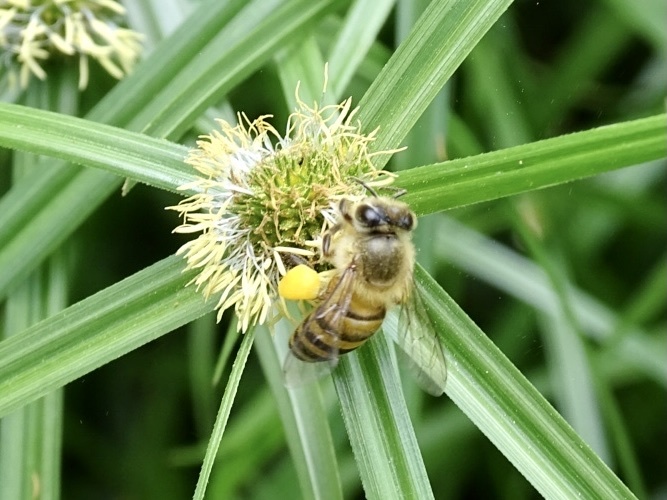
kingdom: Animalia
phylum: Arthropoda
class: Insecta
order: Hymenoptera
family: Apidae
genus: Apis
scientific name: Apis cerana
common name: Honey bee
